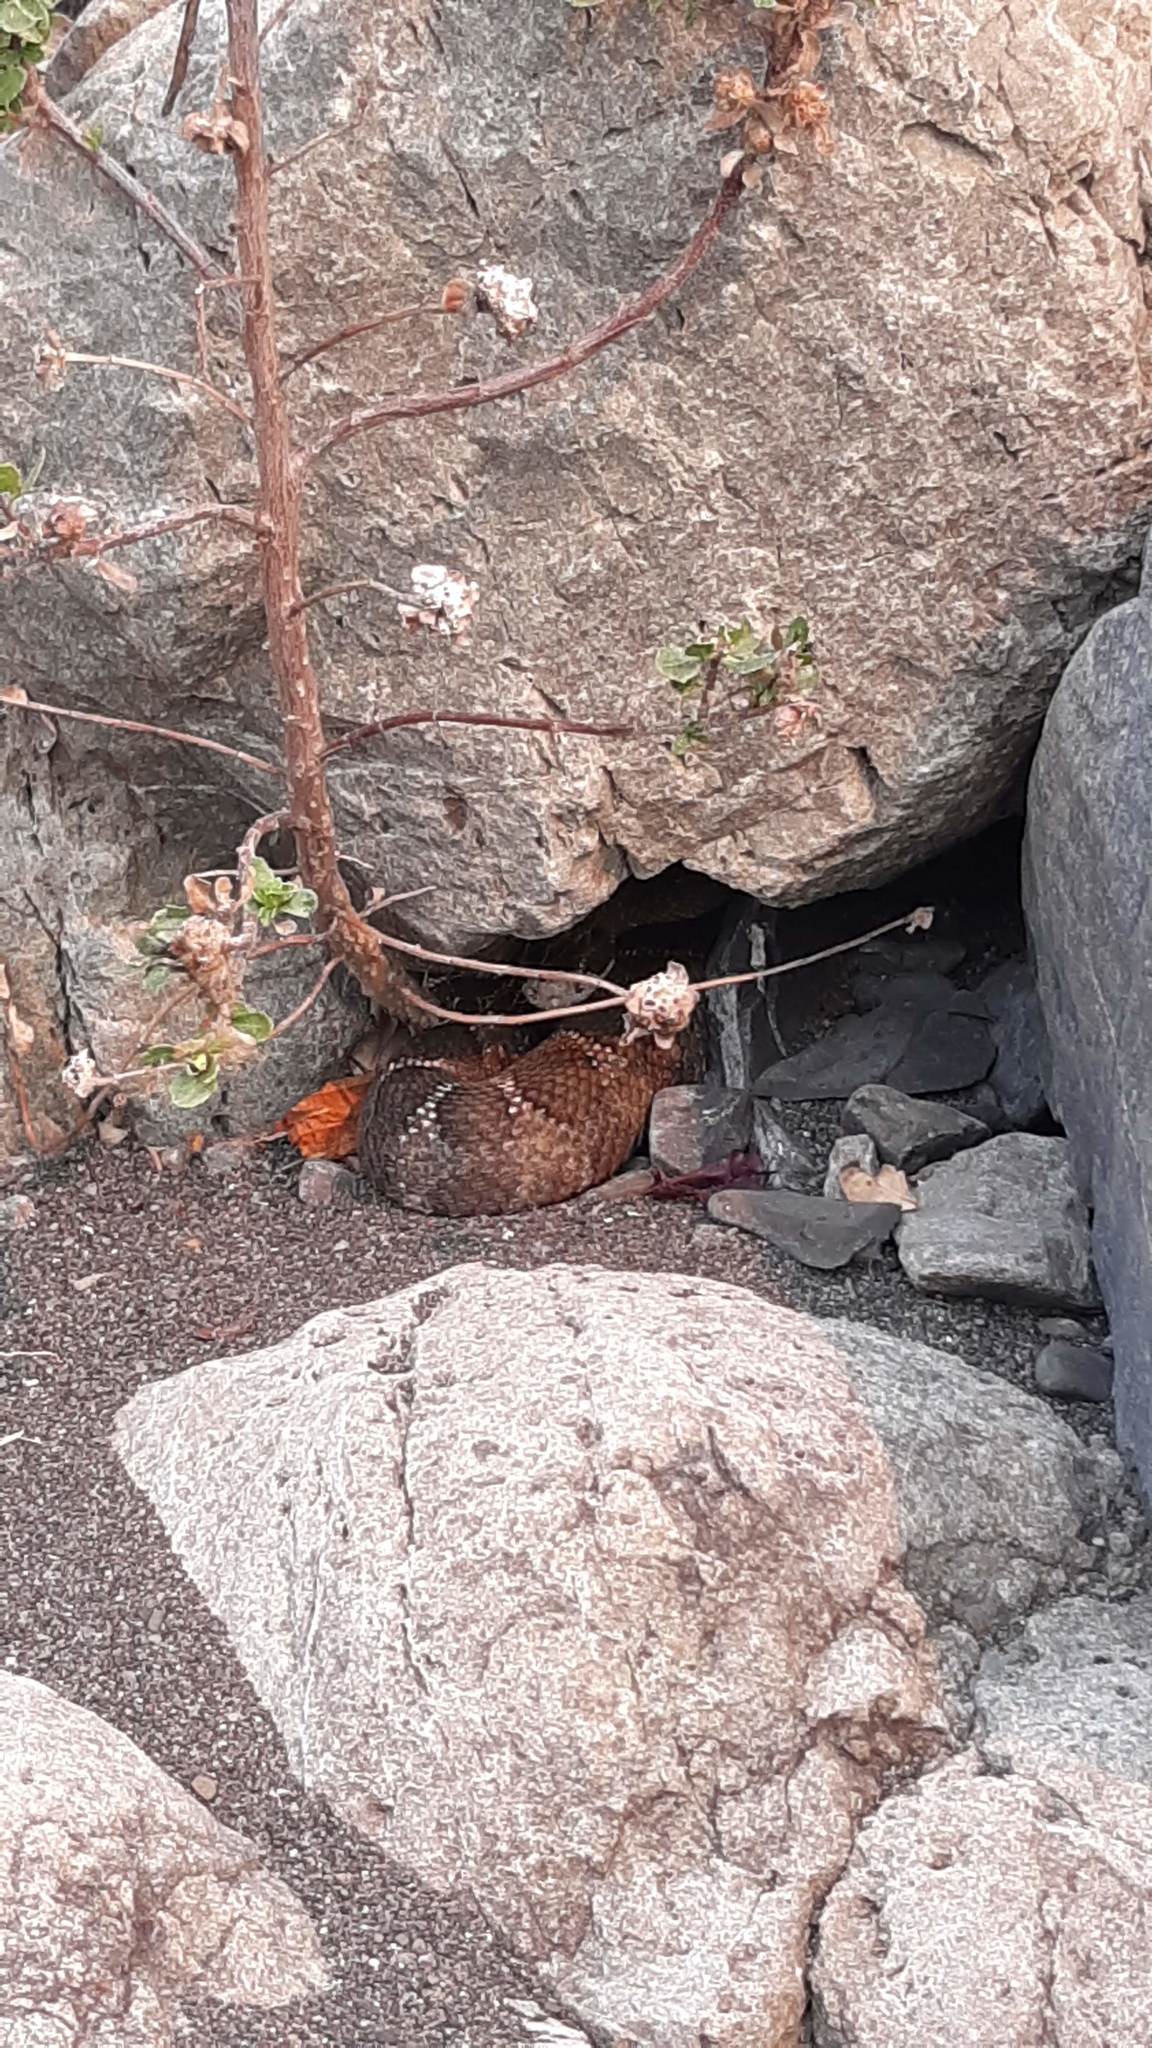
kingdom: Animalia
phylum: Chordata
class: Squamata
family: Viperidae
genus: Crotalus
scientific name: Crotalus oreganus
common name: Abyssus
